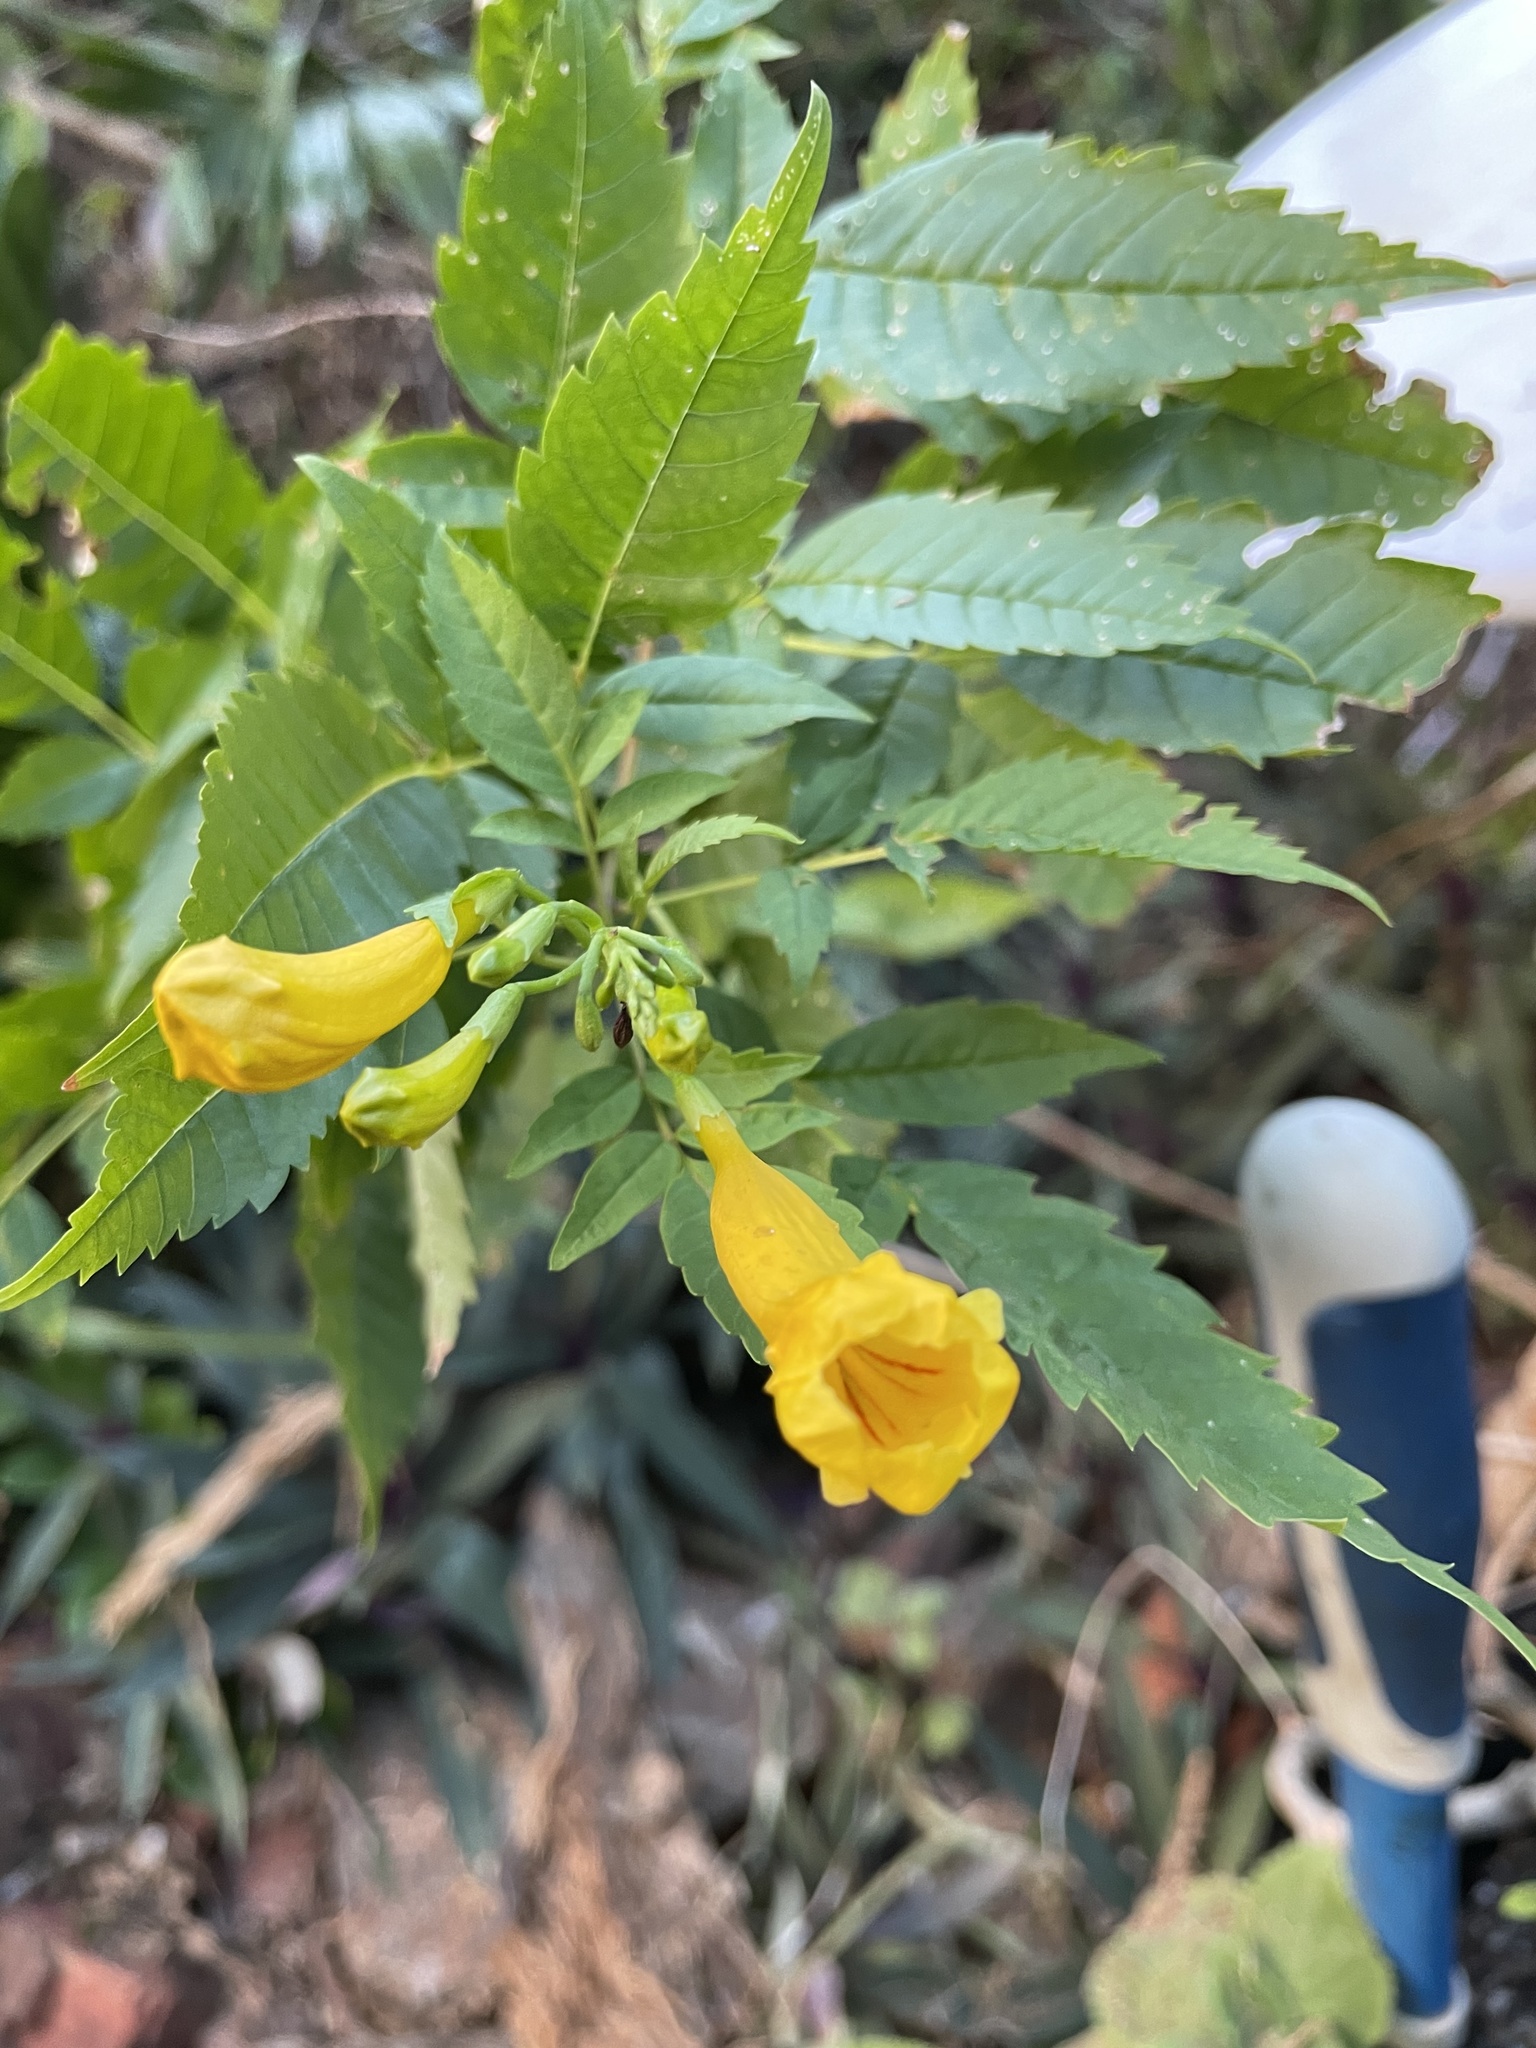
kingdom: Plantae
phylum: Tracheophyta
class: Magnoliopsida
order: Lamiales
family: Bignoniaceae
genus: Tecoma
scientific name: Tecoma stans
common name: Yellow trumpetbush
